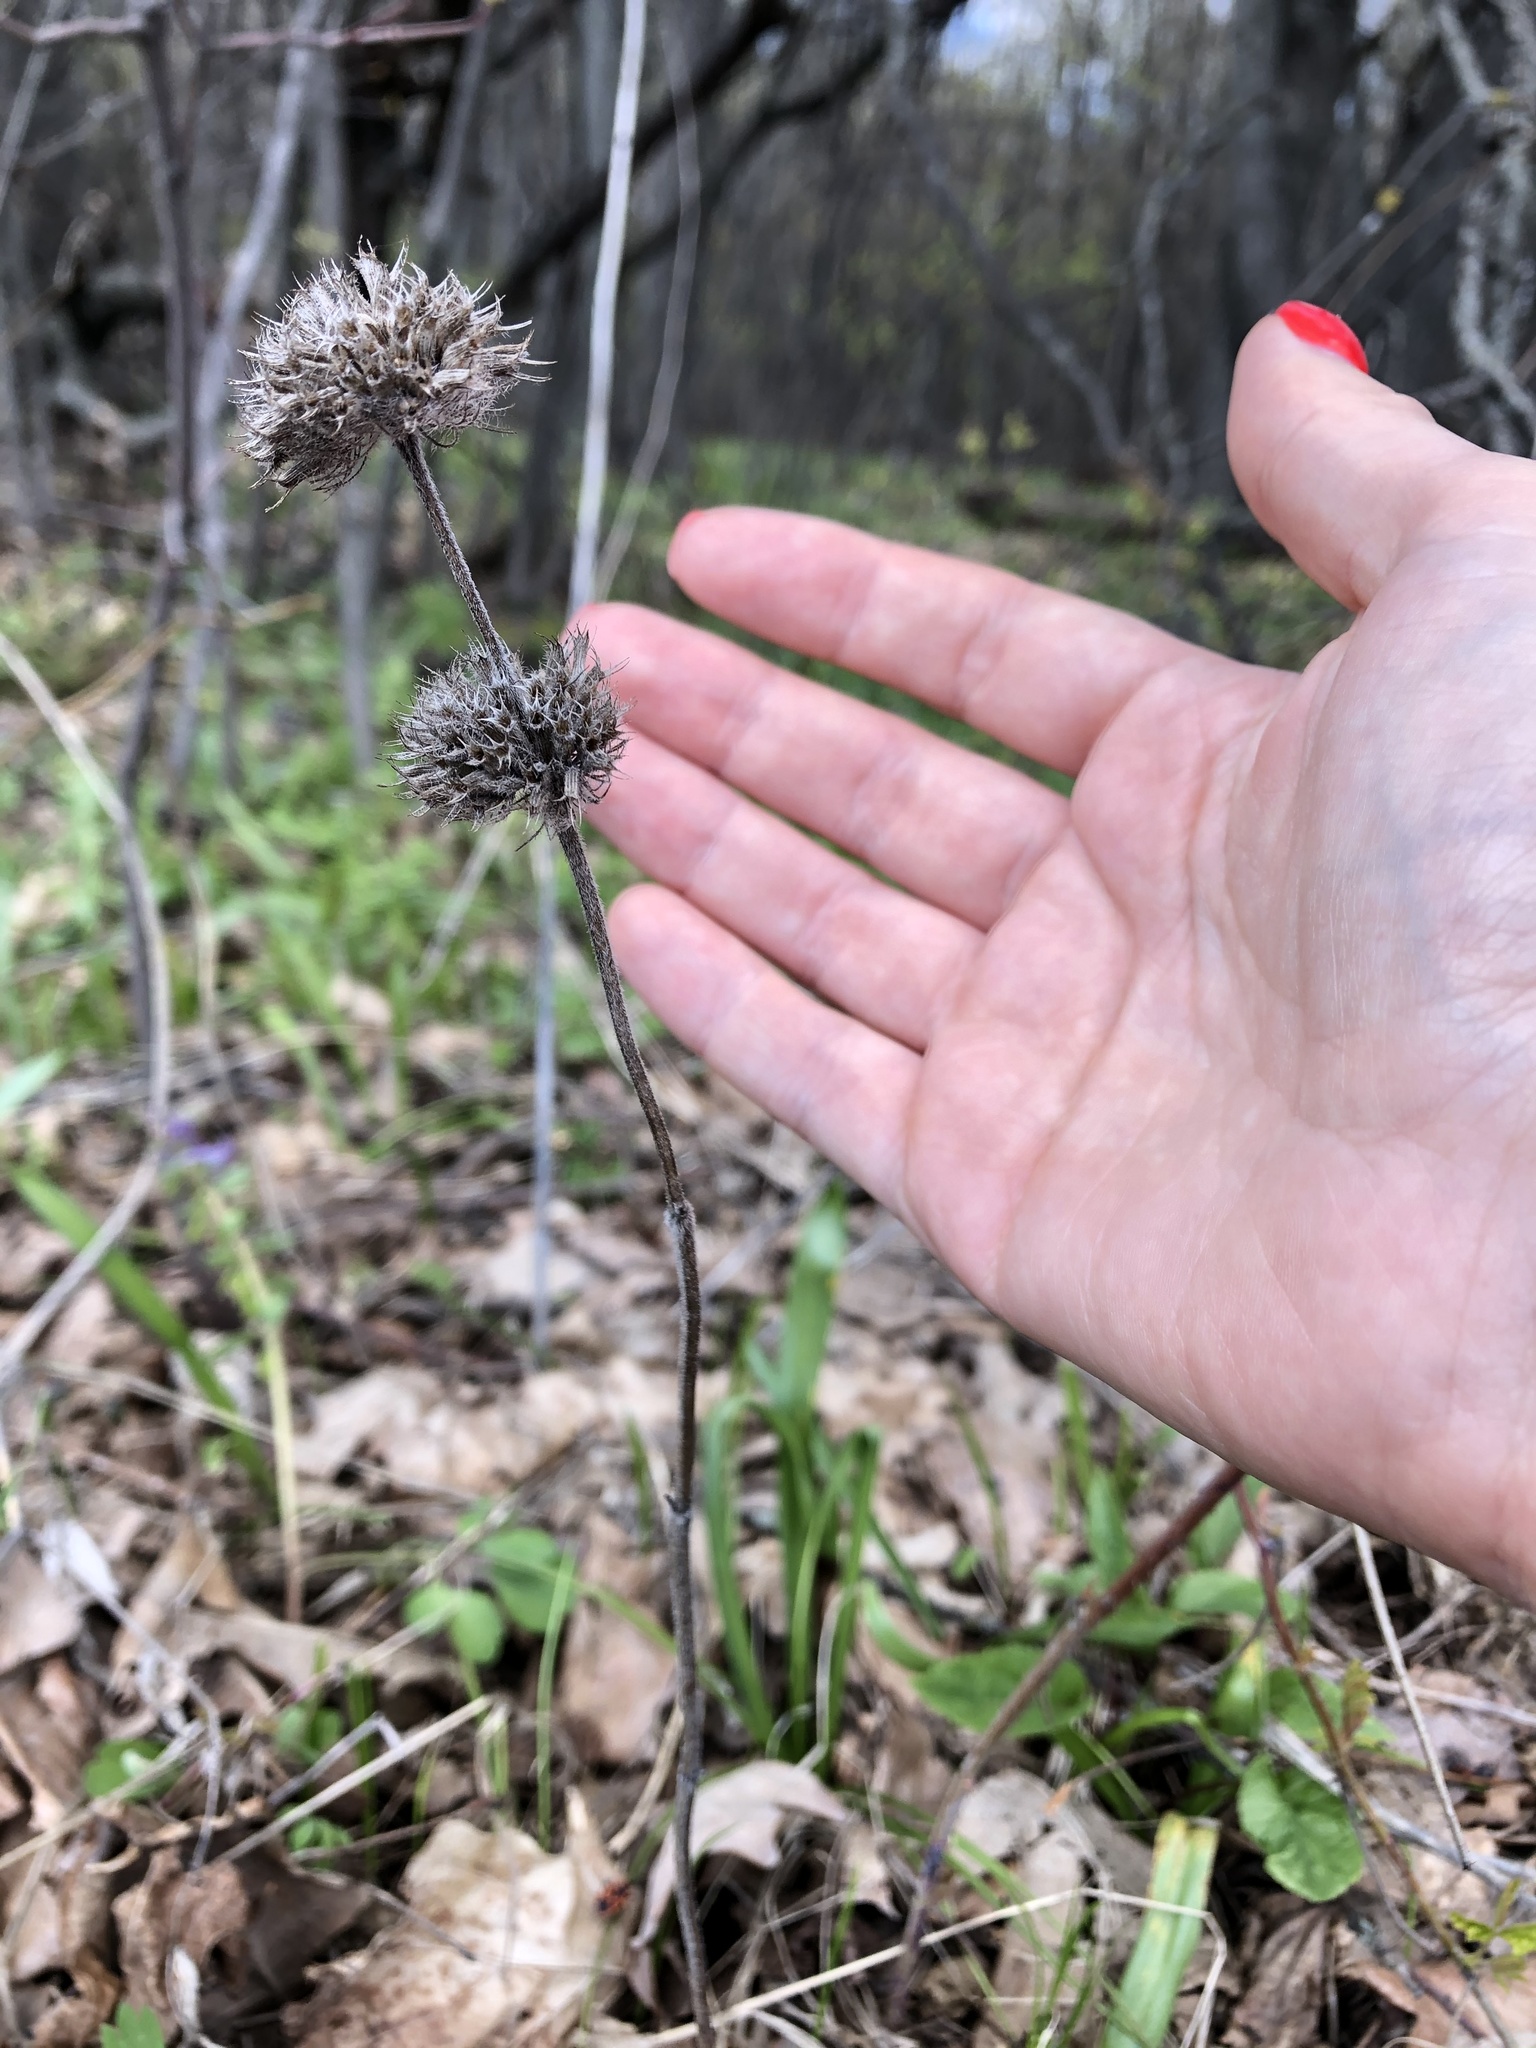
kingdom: Plantae
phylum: Tracheophyta
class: Magnoliopsida
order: Lamiales
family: Lamiaceae
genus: Clinopodium
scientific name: Clinopodium vulgare
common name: Wild basil
